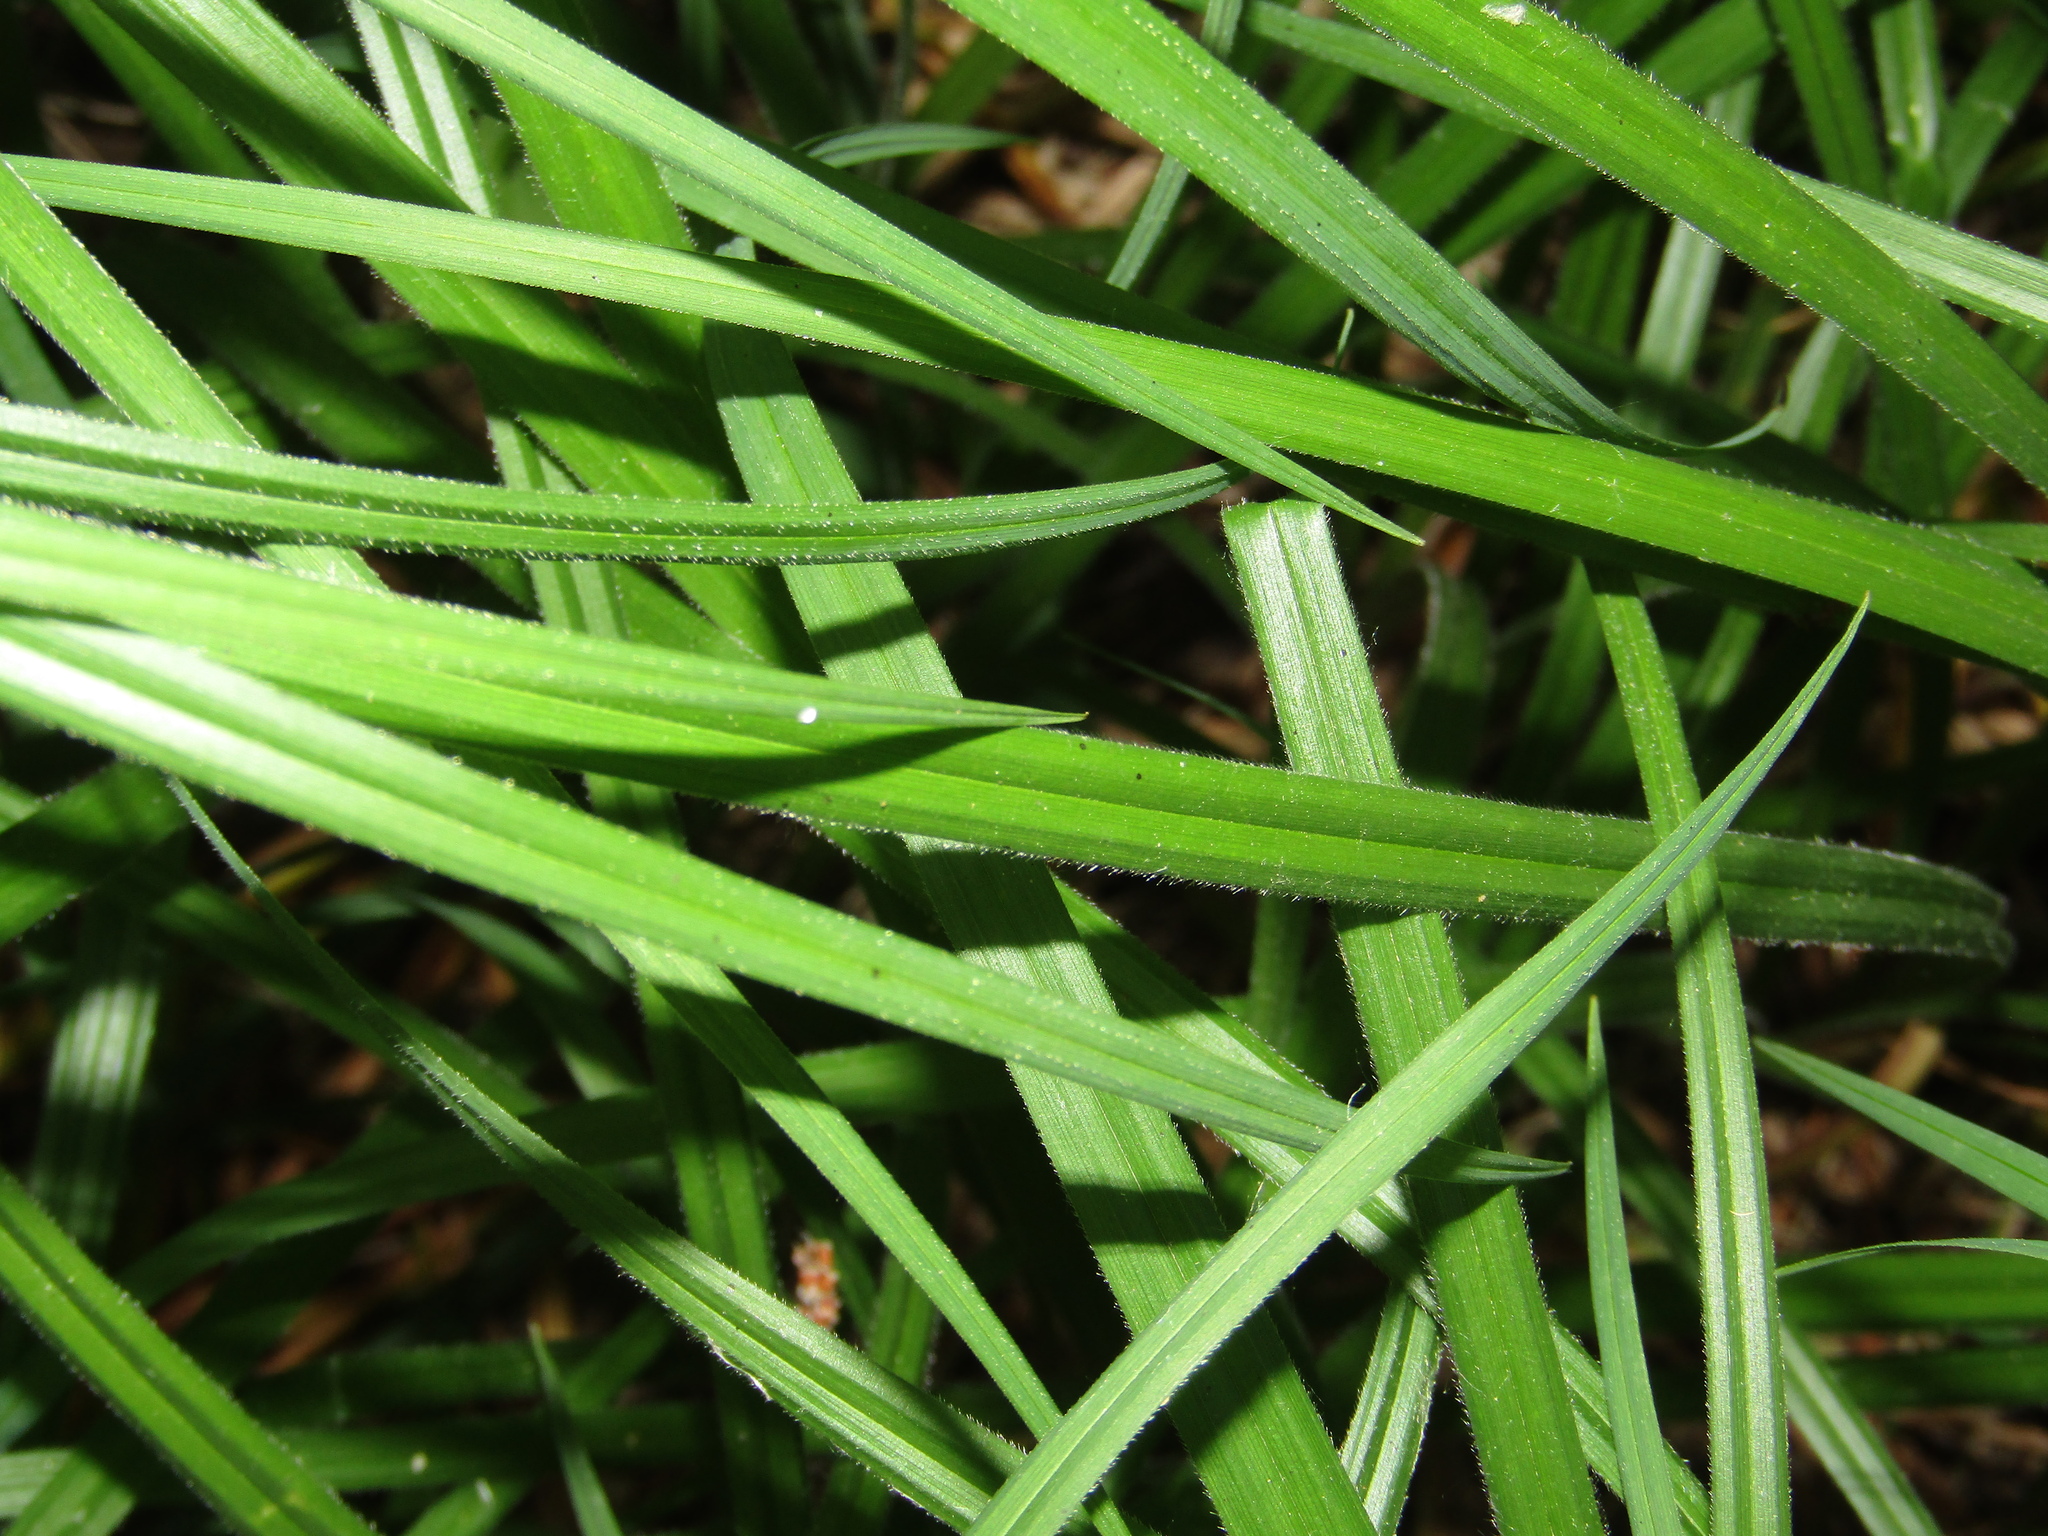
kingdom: Plantae
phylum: Tracheophyta
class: Liliopsida
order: Poales
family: Cyperaceae
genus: Carex
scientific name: Carex pilosa
